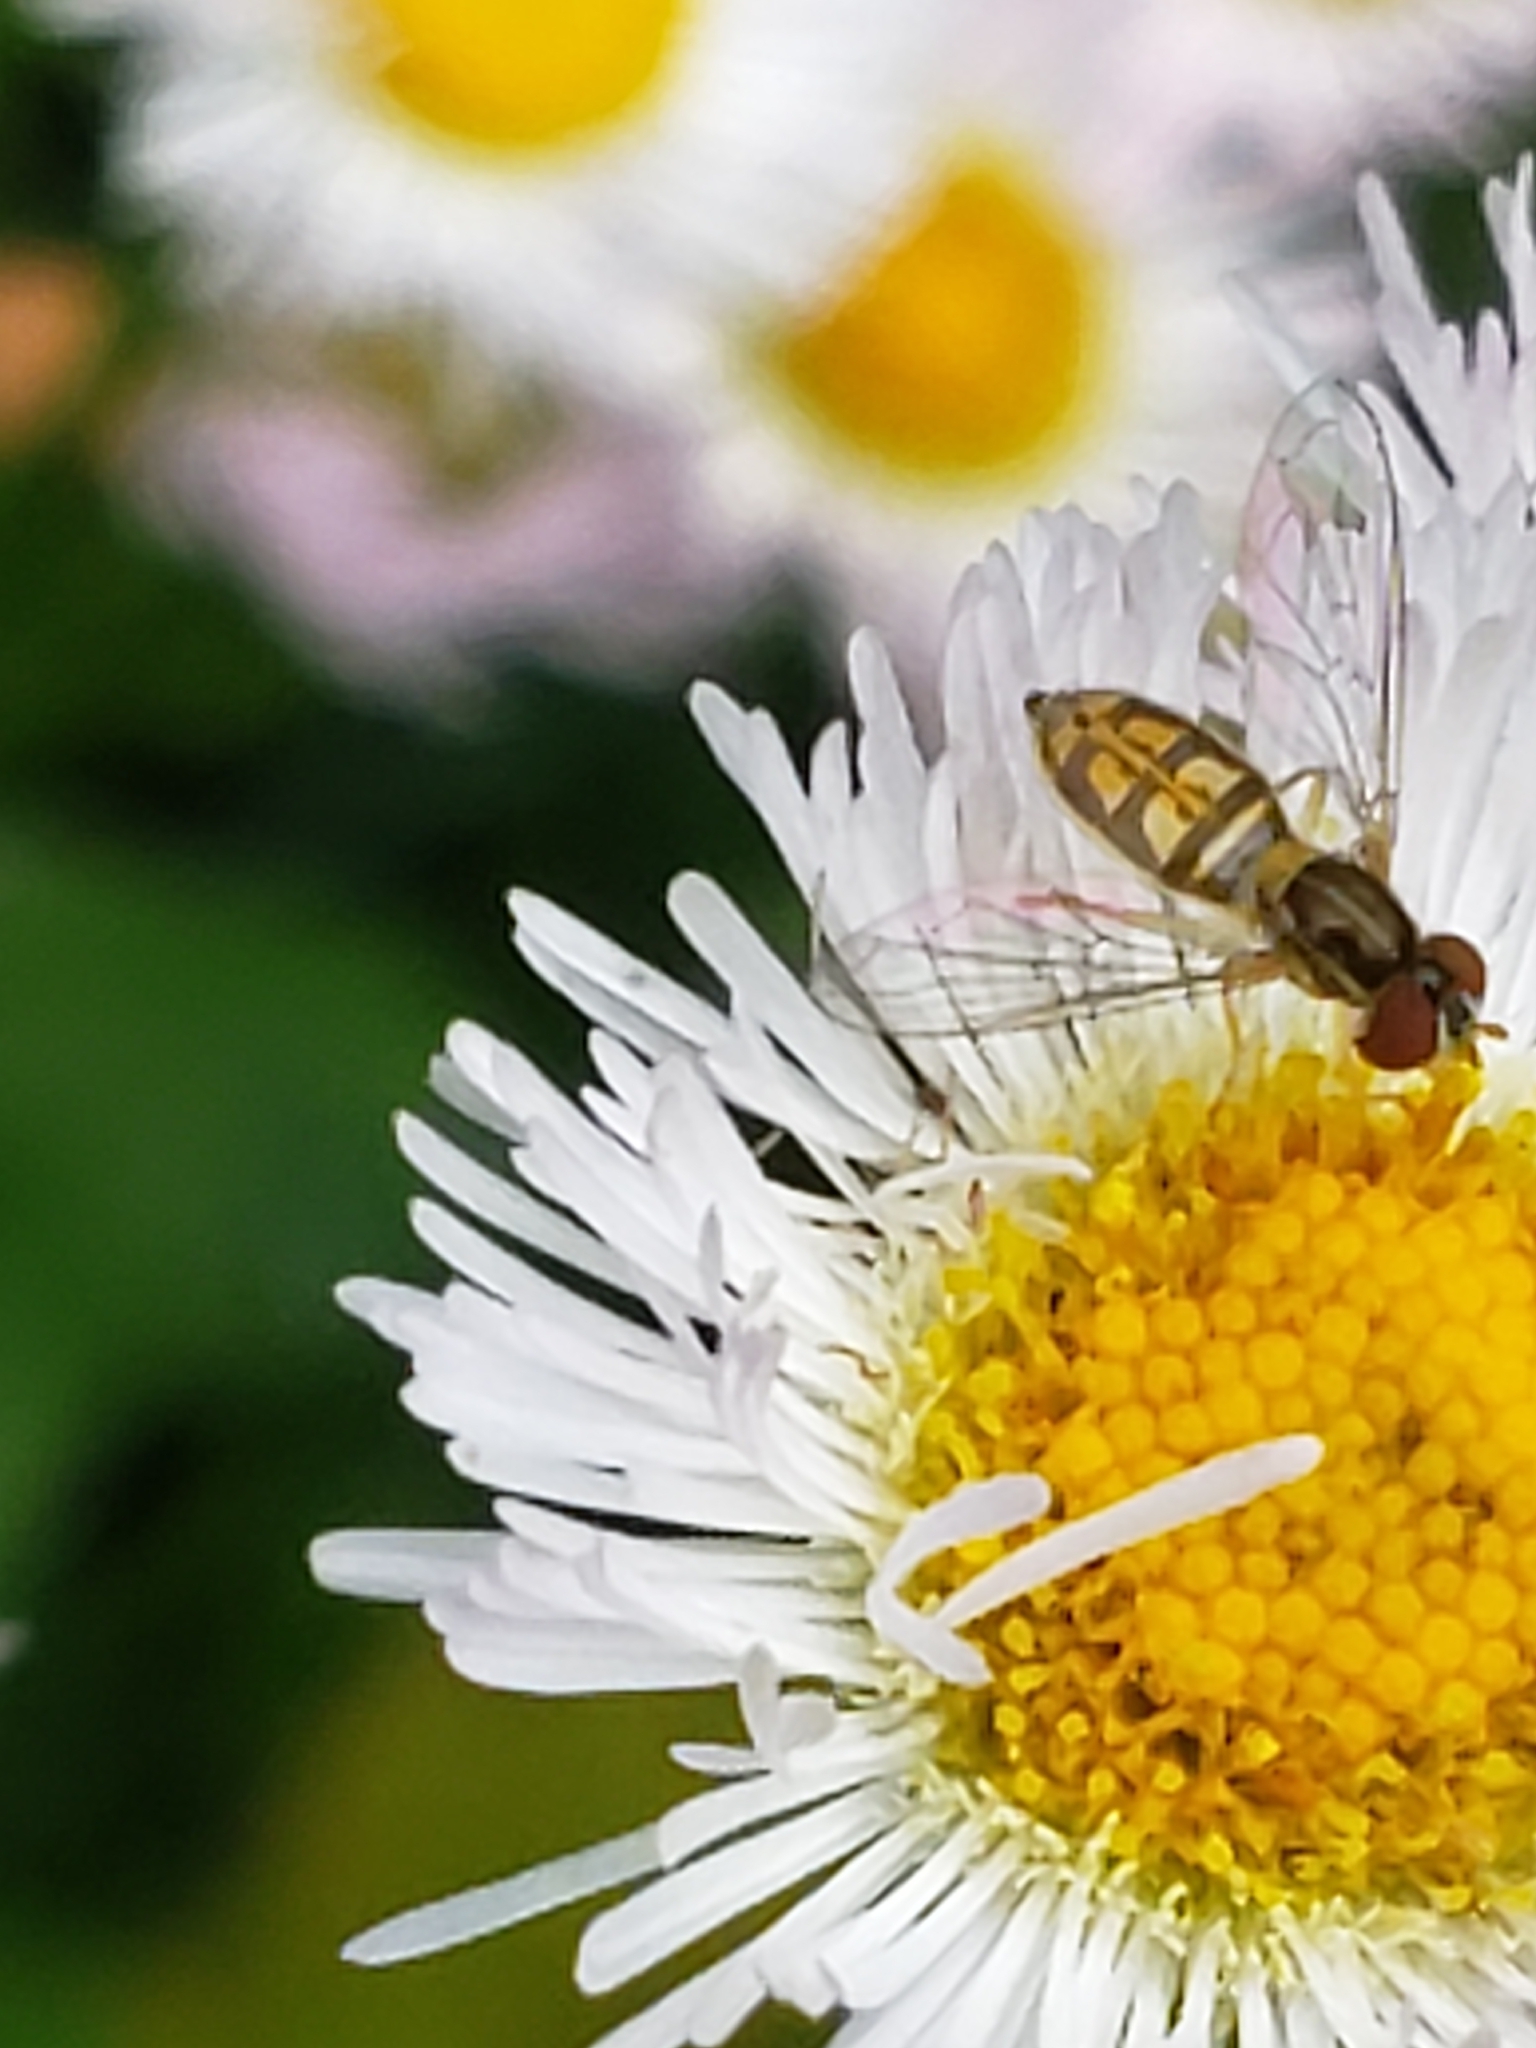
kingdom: Animalia
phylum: Arthropoda
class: Insecta
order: Diptera
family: Syrphidae
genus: Toxomerus
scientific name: Toxomerus marginatus
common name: Syrphid fly
